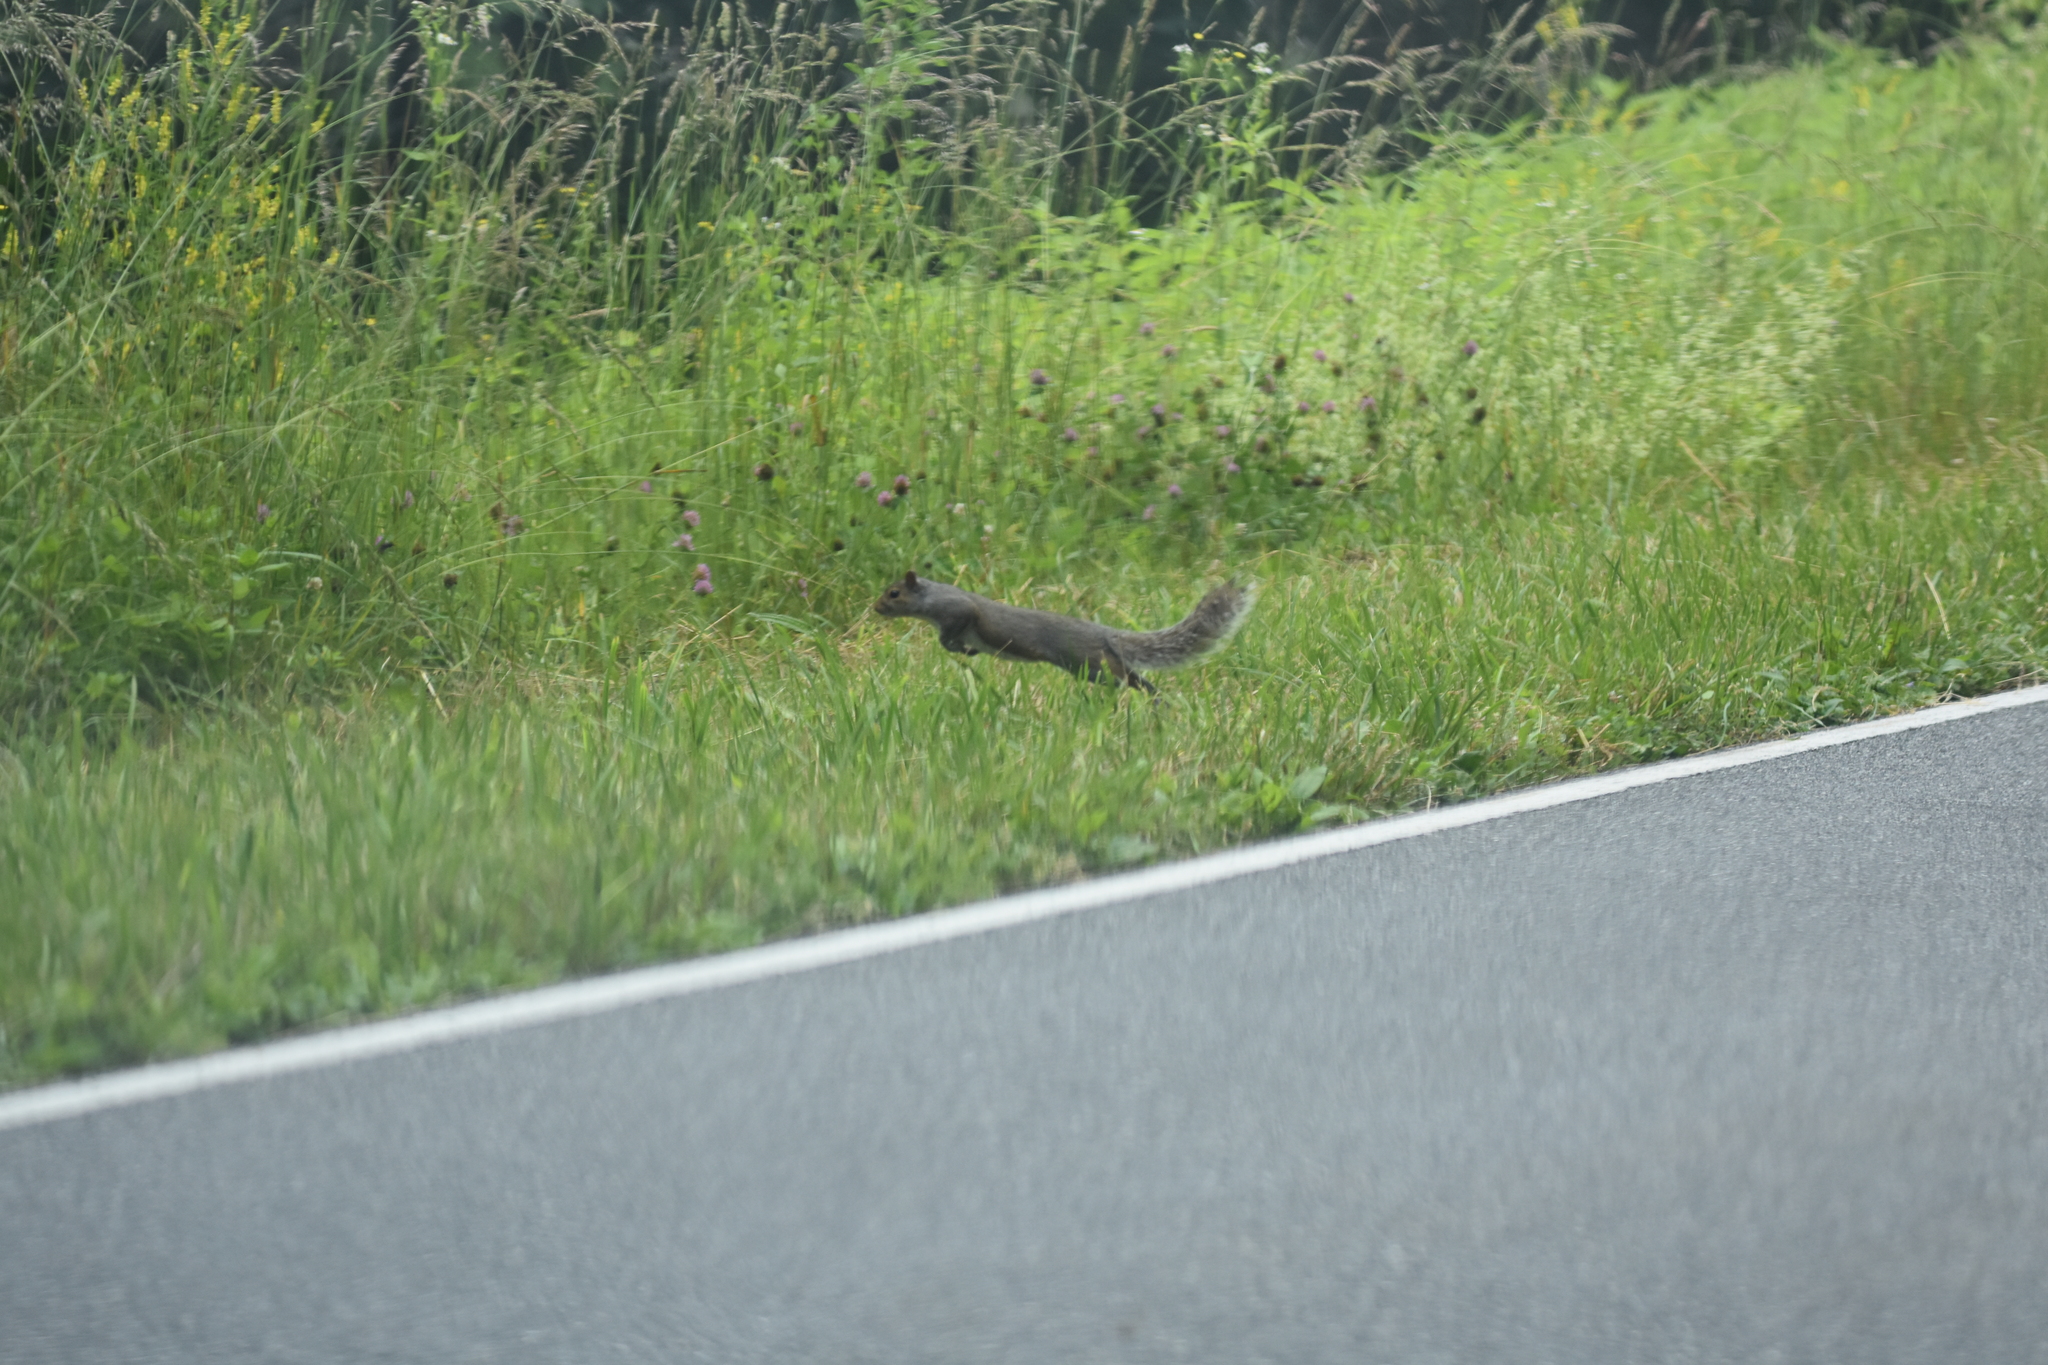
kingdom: Animalia
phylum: Chordata
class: Mammalia
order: Rodentia
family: Sciuridae
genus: Sciurus
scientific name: Sciurus carolinensis
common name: Eastern gray squirrel
